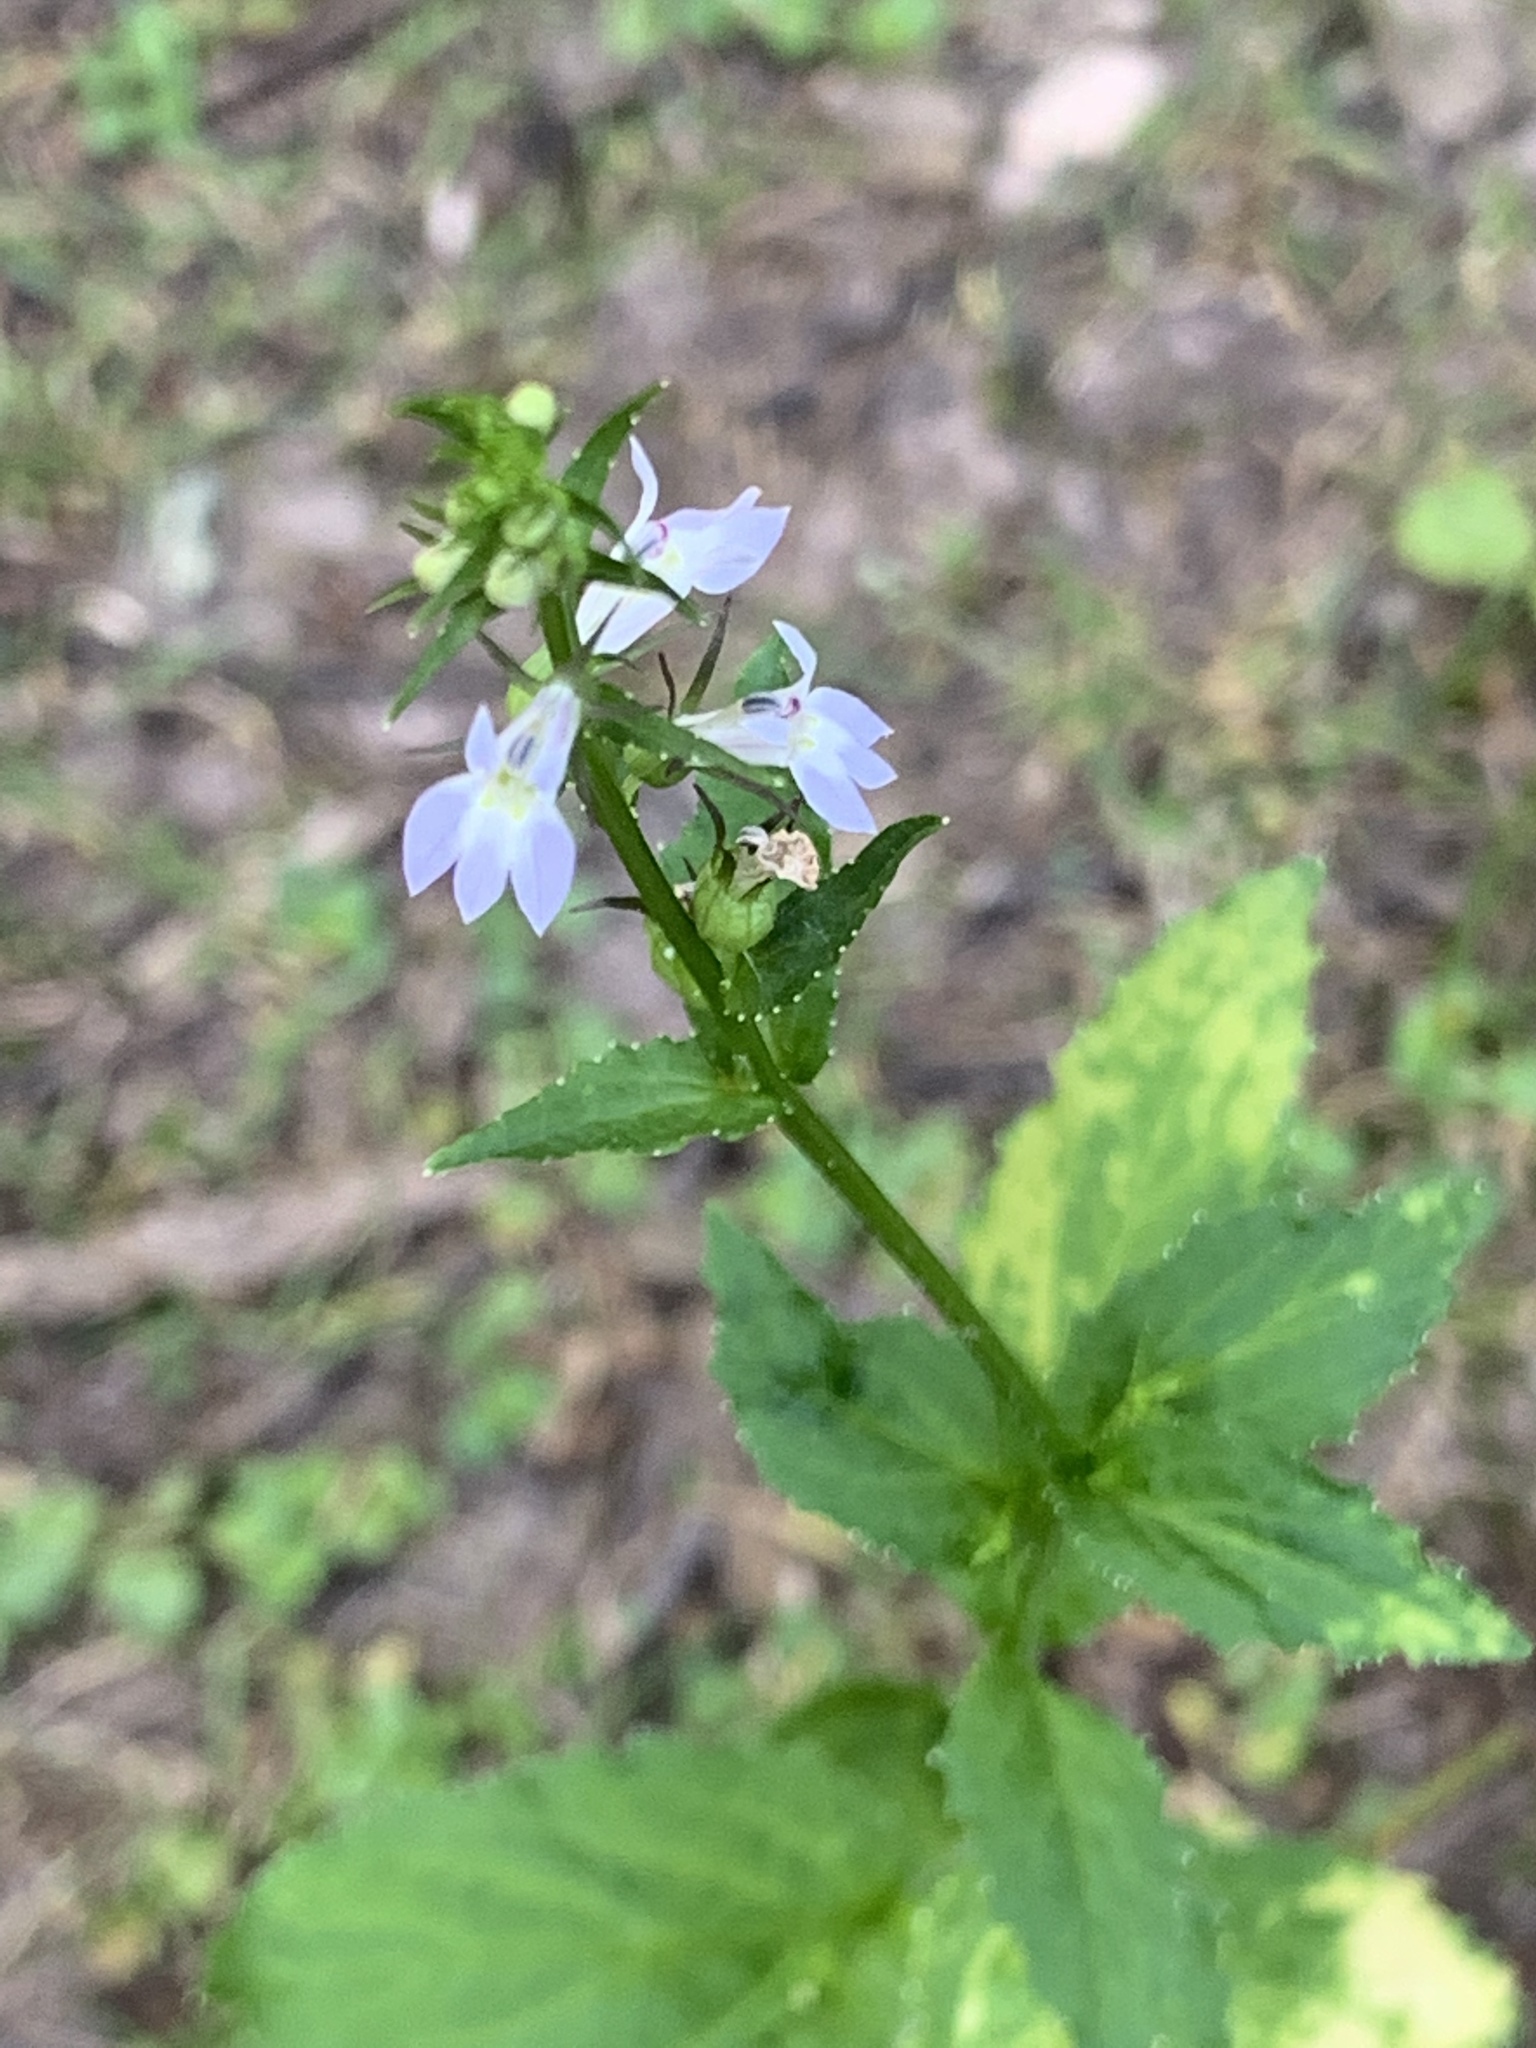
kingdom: Plantae
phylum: Tracheophyta
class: Magnoliopsida
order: Asterales
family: Campanulaceae
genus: Lobelia
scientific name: Lobelia inflata
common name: Indian tobacco
